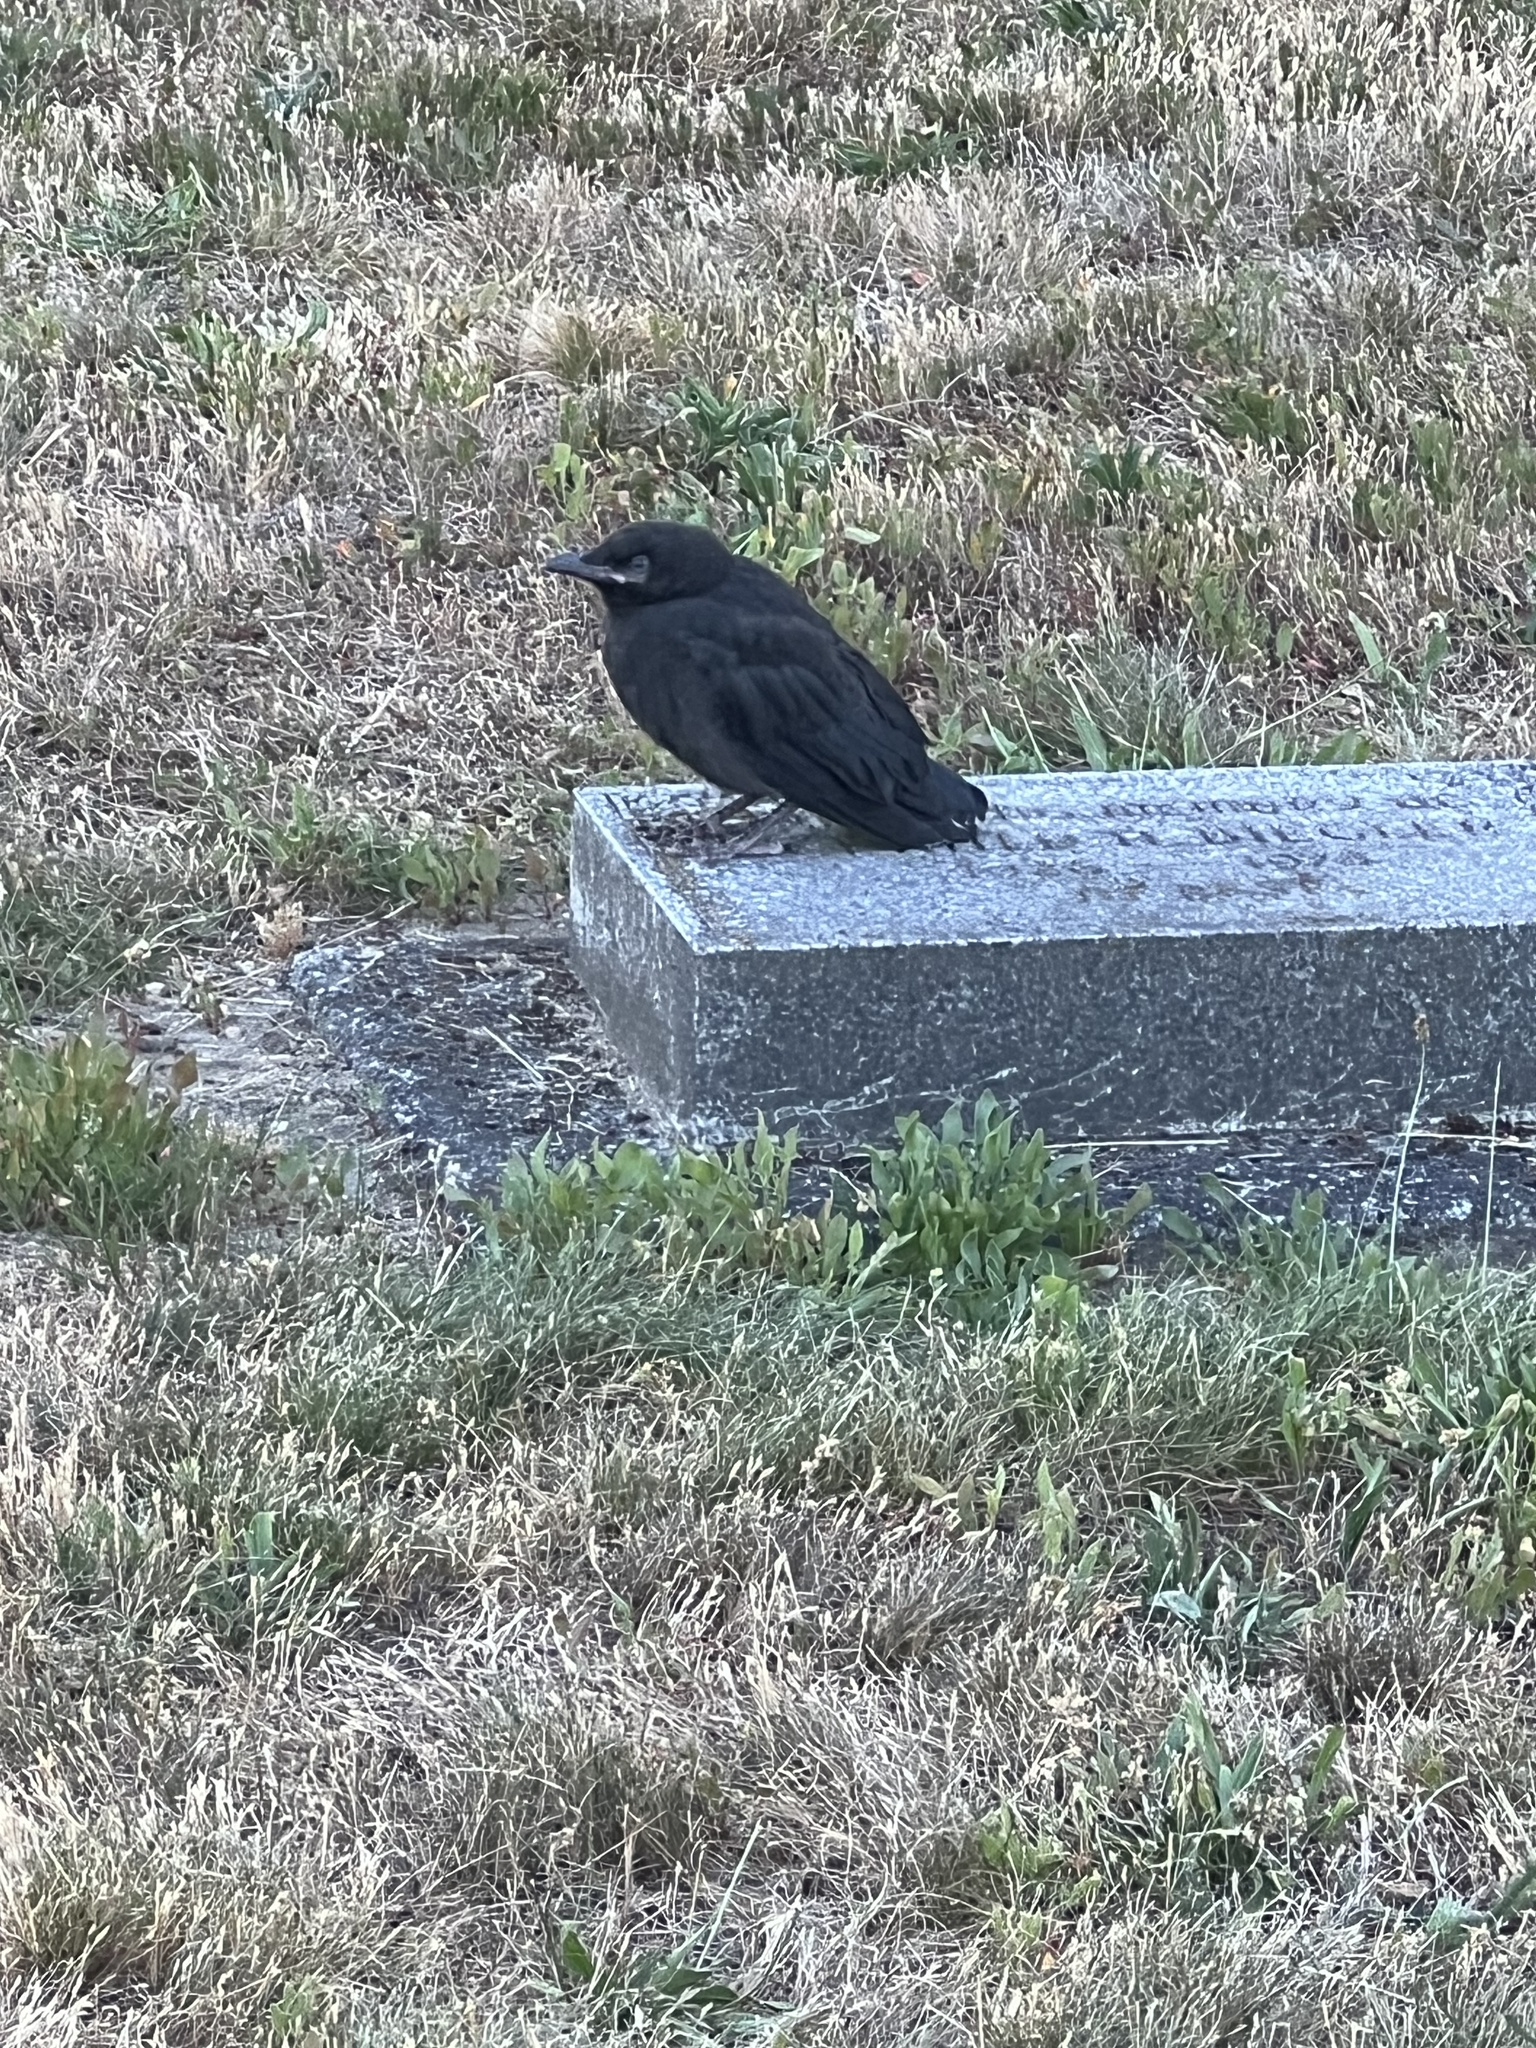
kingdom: Animalia
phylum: Chordata
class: Aves
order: Passeriformes
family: Corvidae
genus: Corvus
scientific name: Corvus brachyrhynchos
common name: American crow
